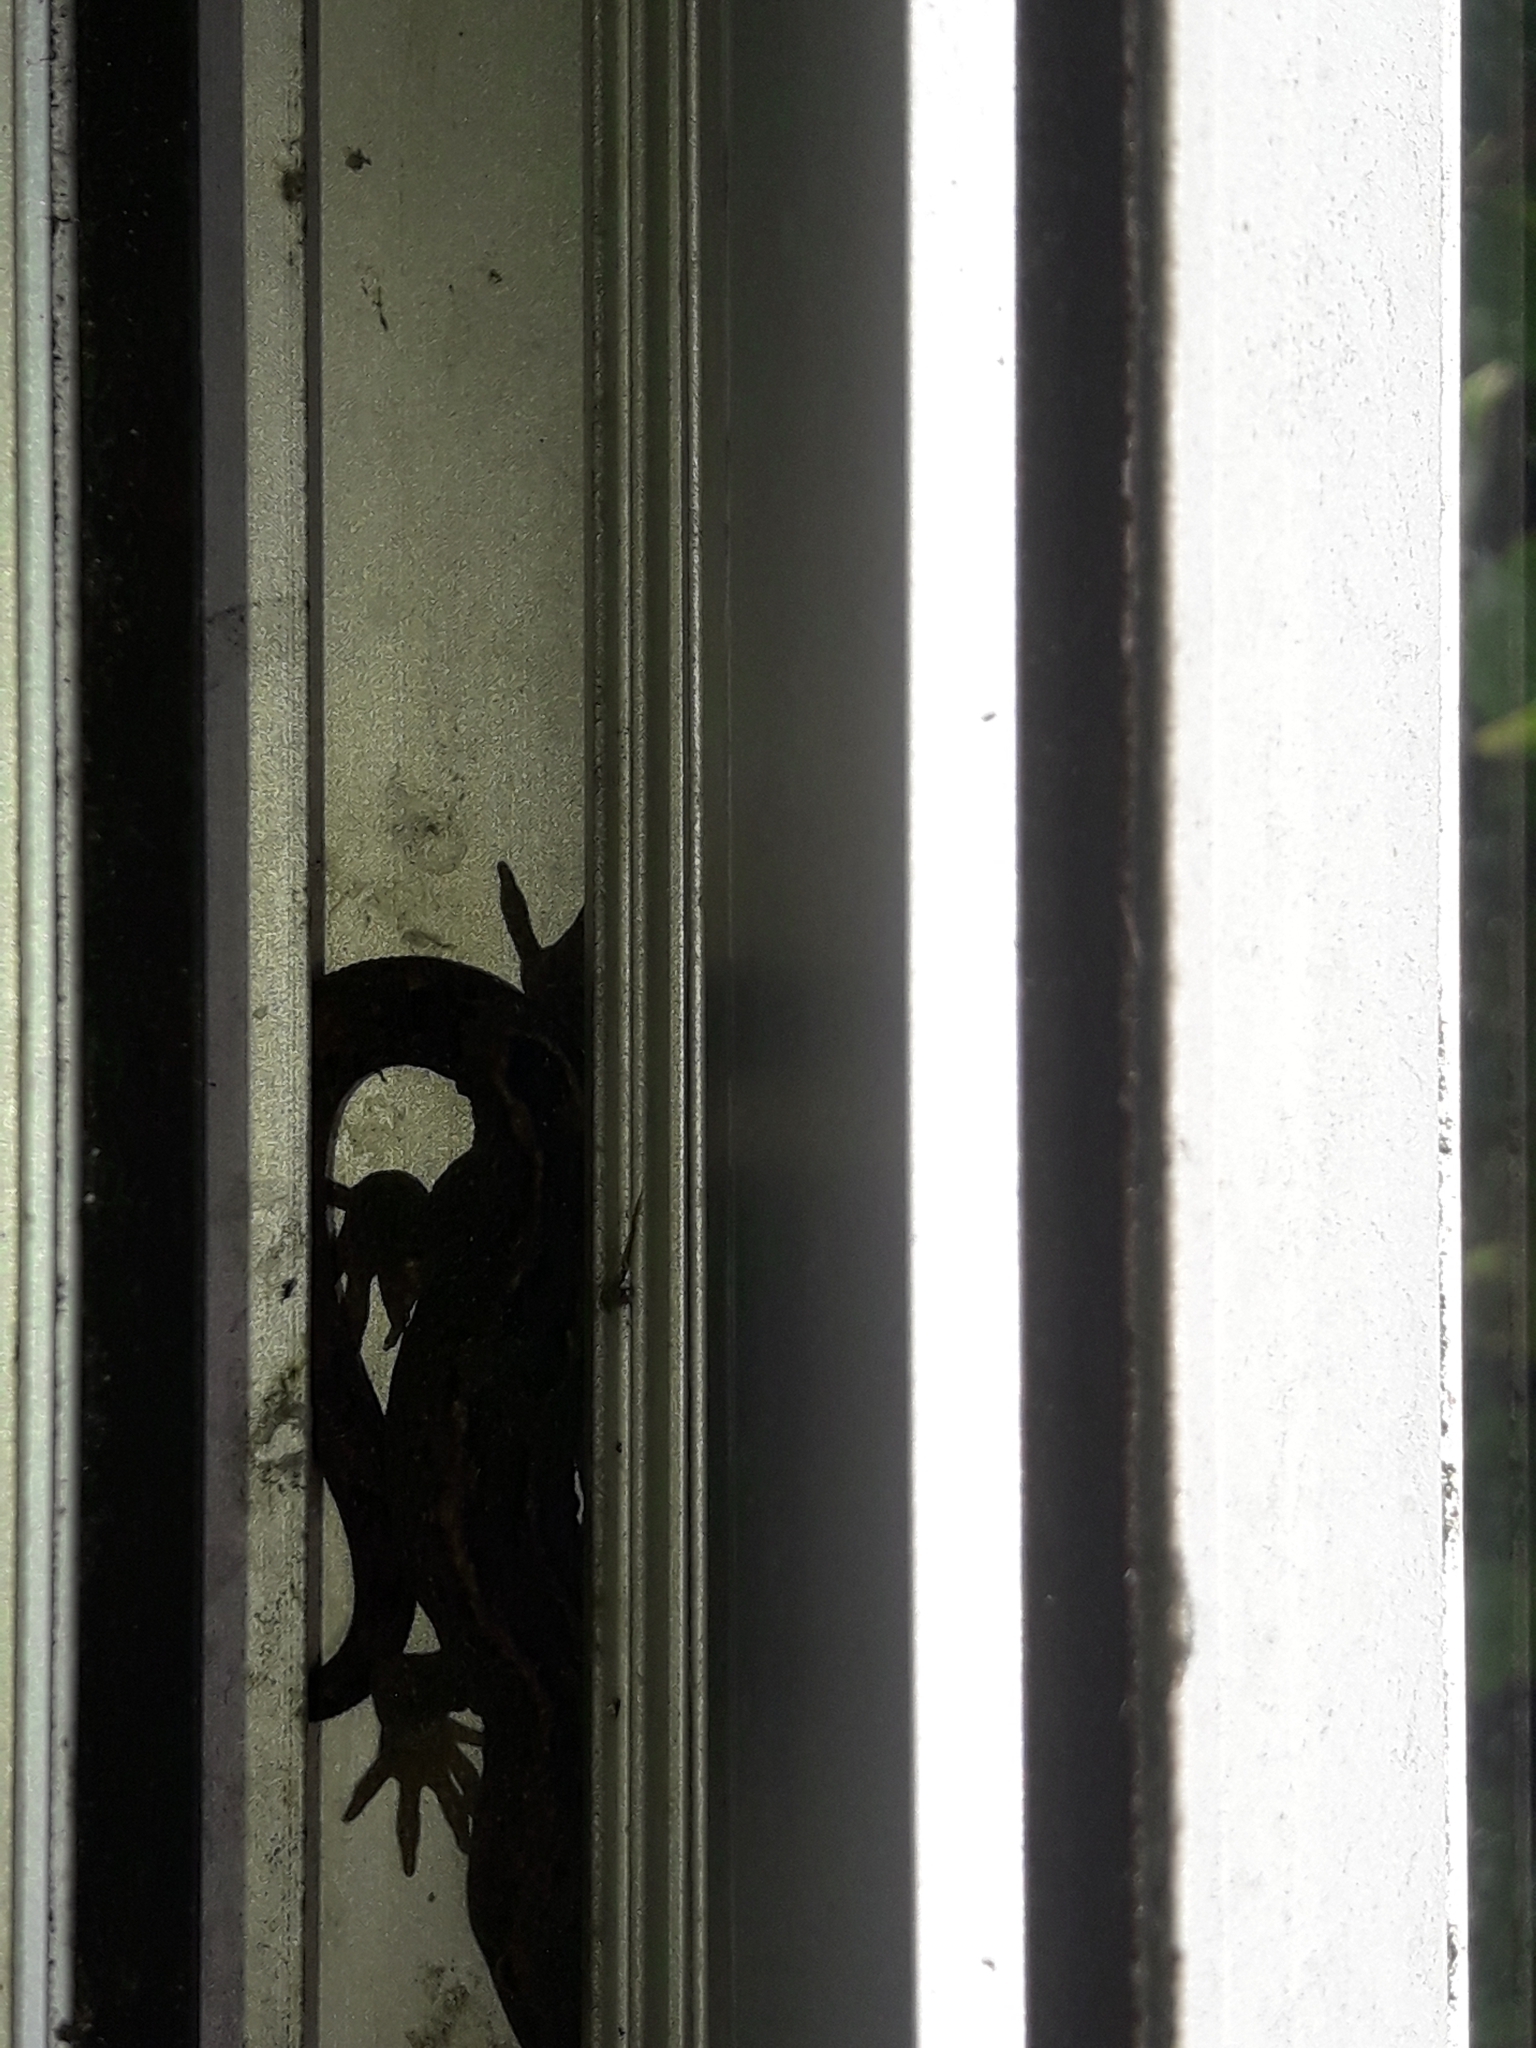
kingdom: Animalia
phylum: Chordata
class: Squamata
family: Diplodactylidae
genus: Woodworthia
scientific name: Woodworthia maculata
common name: Raukawa gecko
